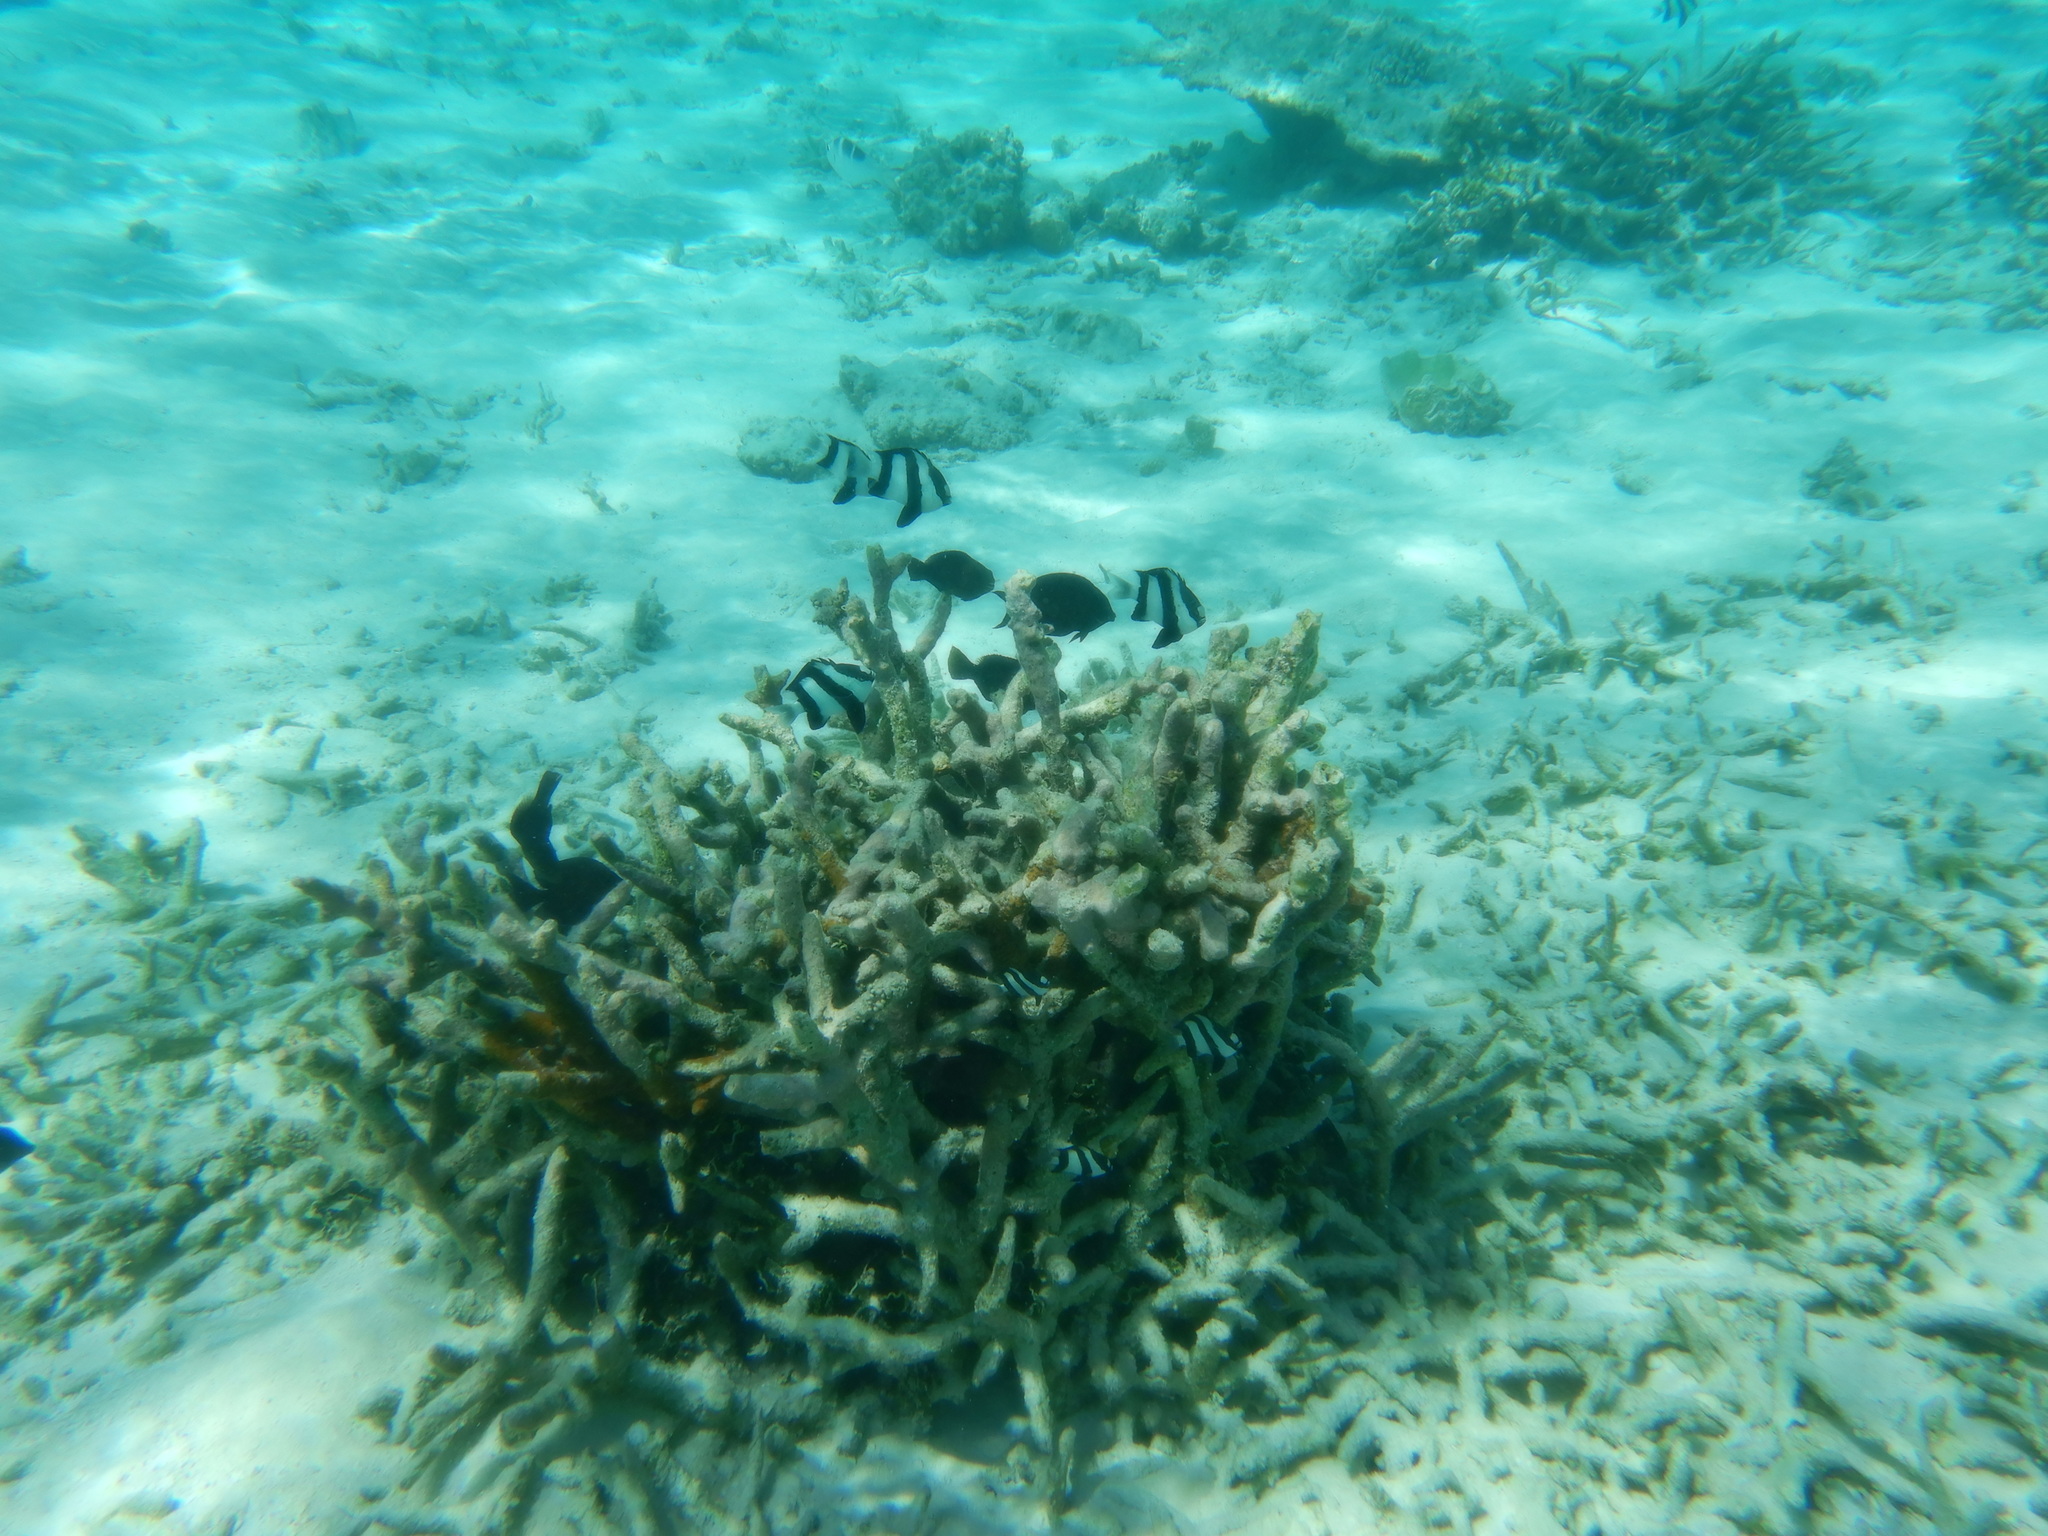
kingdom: Animalia
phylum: Chordata
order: Perciformes
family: Pomacentridae
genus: Dascyllus
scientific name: Dascyllus abudafur
